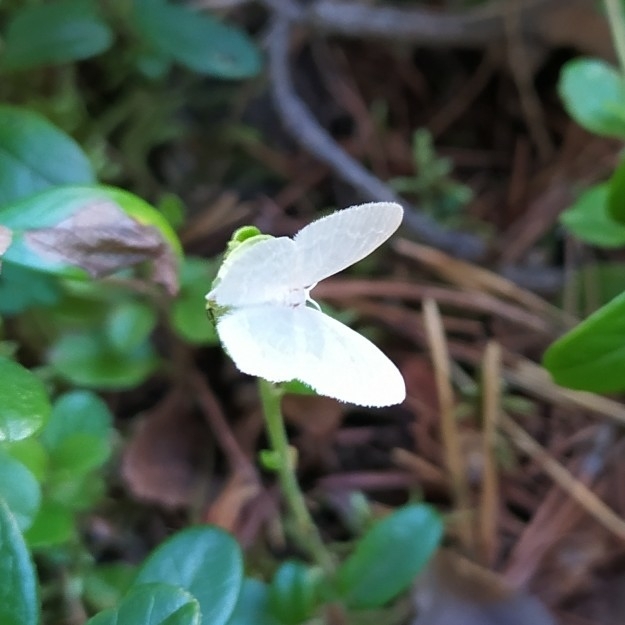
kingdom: Animalia
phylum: Arthropoda
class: Insecta
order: Lepidoptera
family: Geometridae
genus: Jodis
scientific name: Jodis putata
